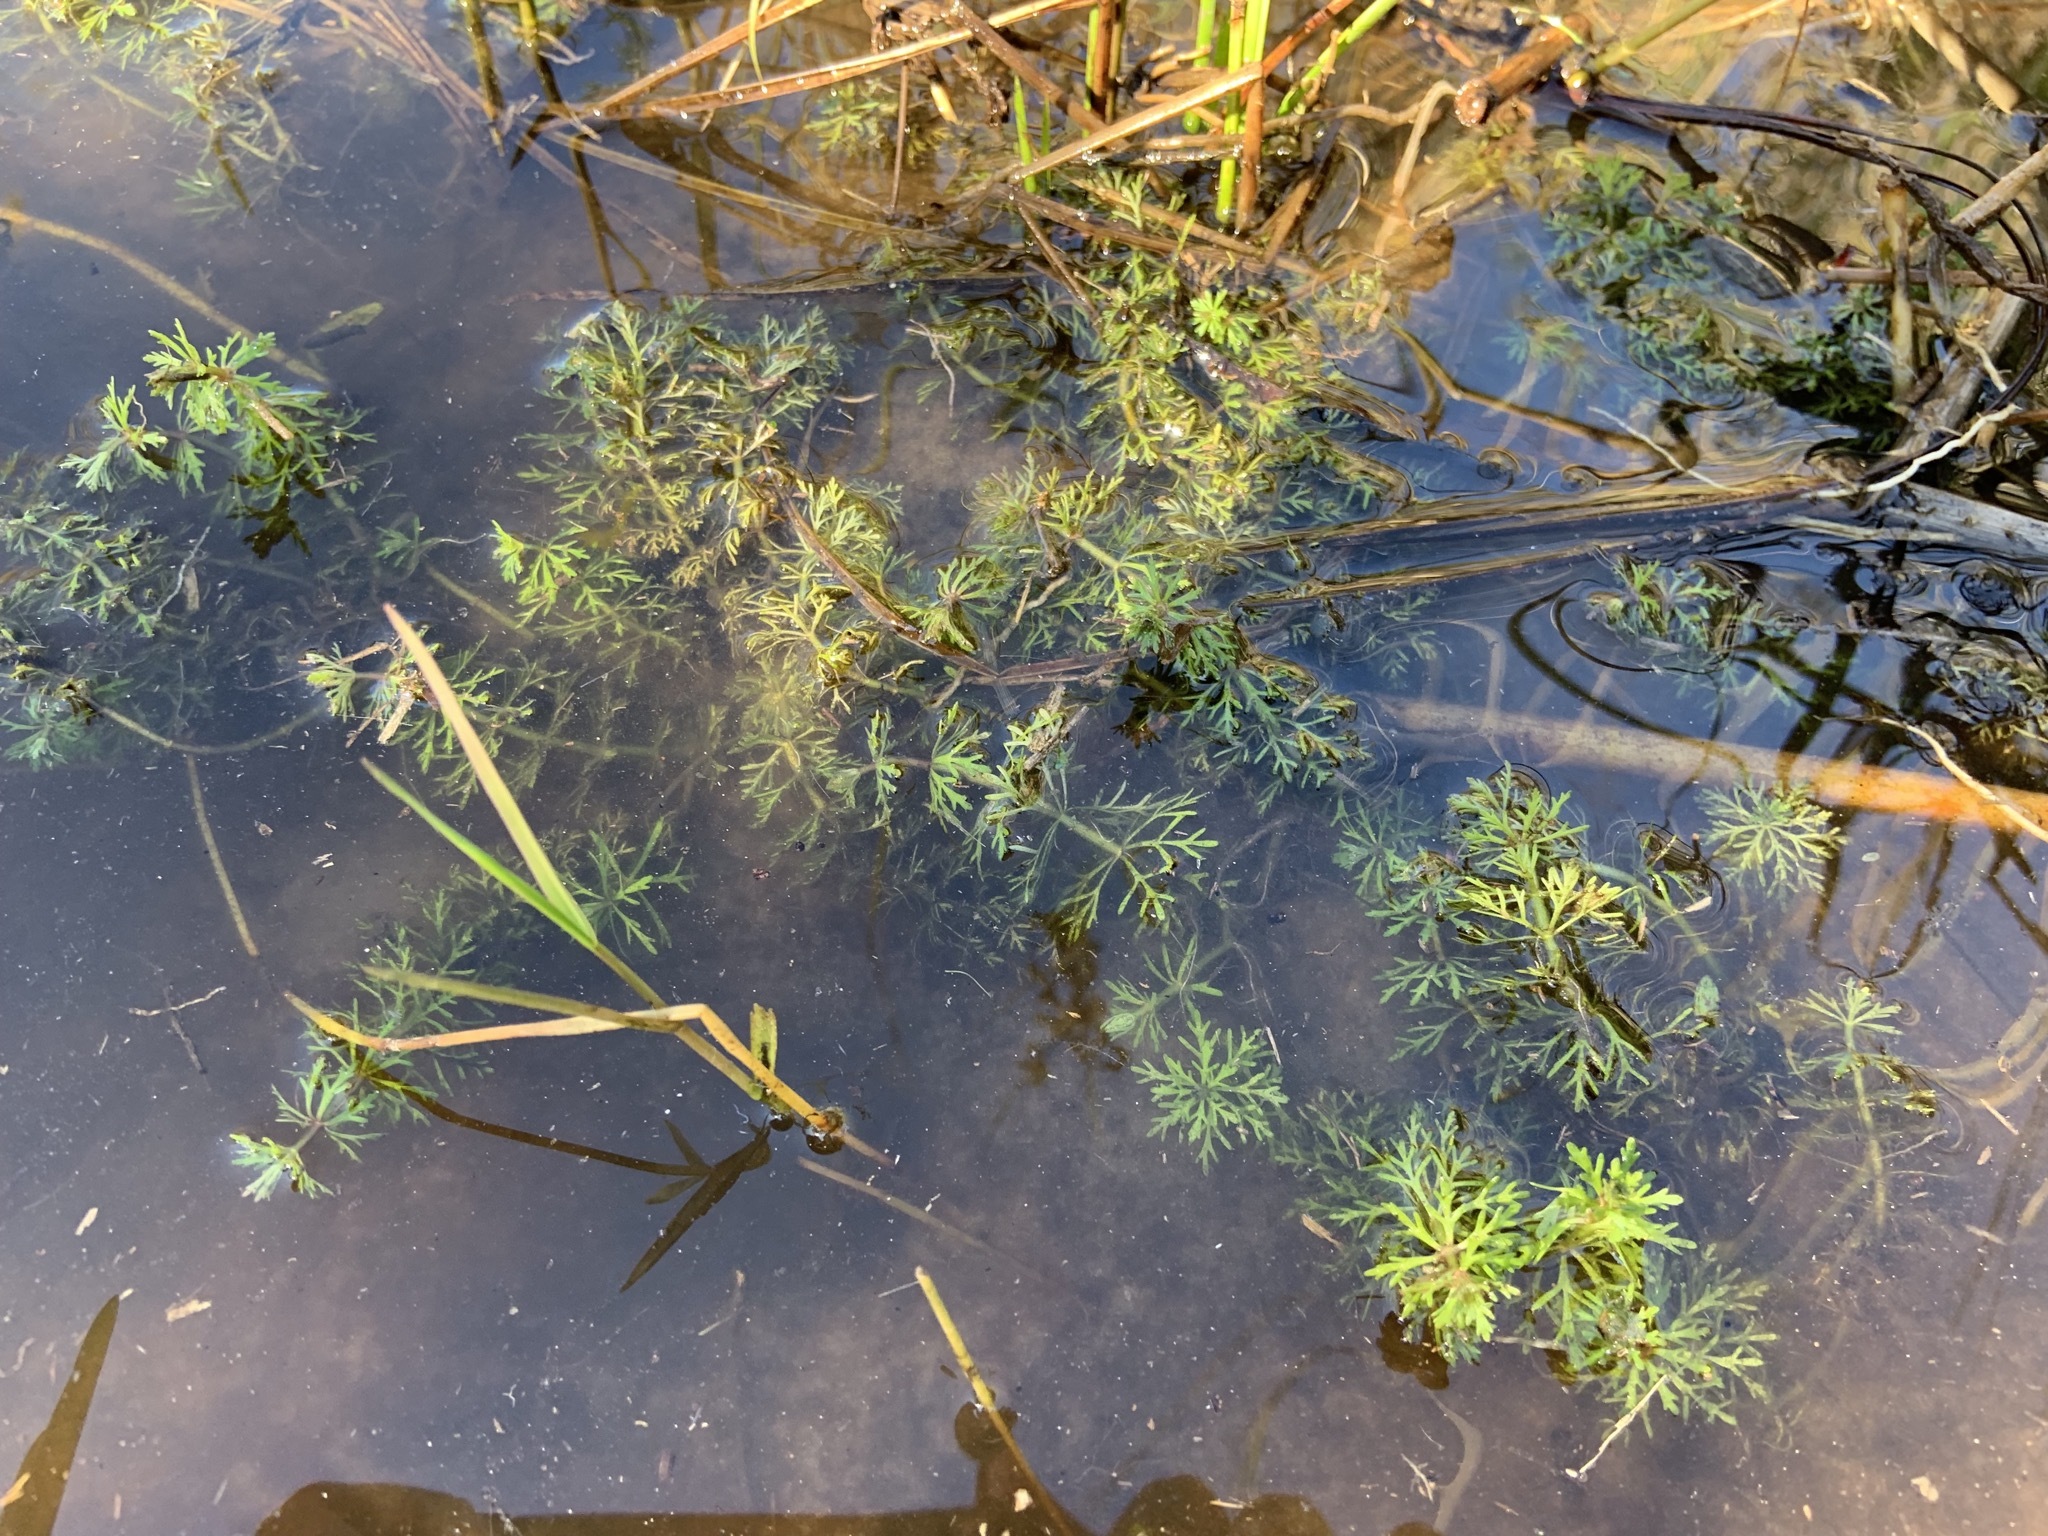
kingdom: Plantae
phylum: Tracheophyta
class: Magnoliopsida
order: Lamiales
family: Plantaginaceae
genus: Limnophila
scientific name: Limnophila sessiliflora
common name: Asian marshweed
